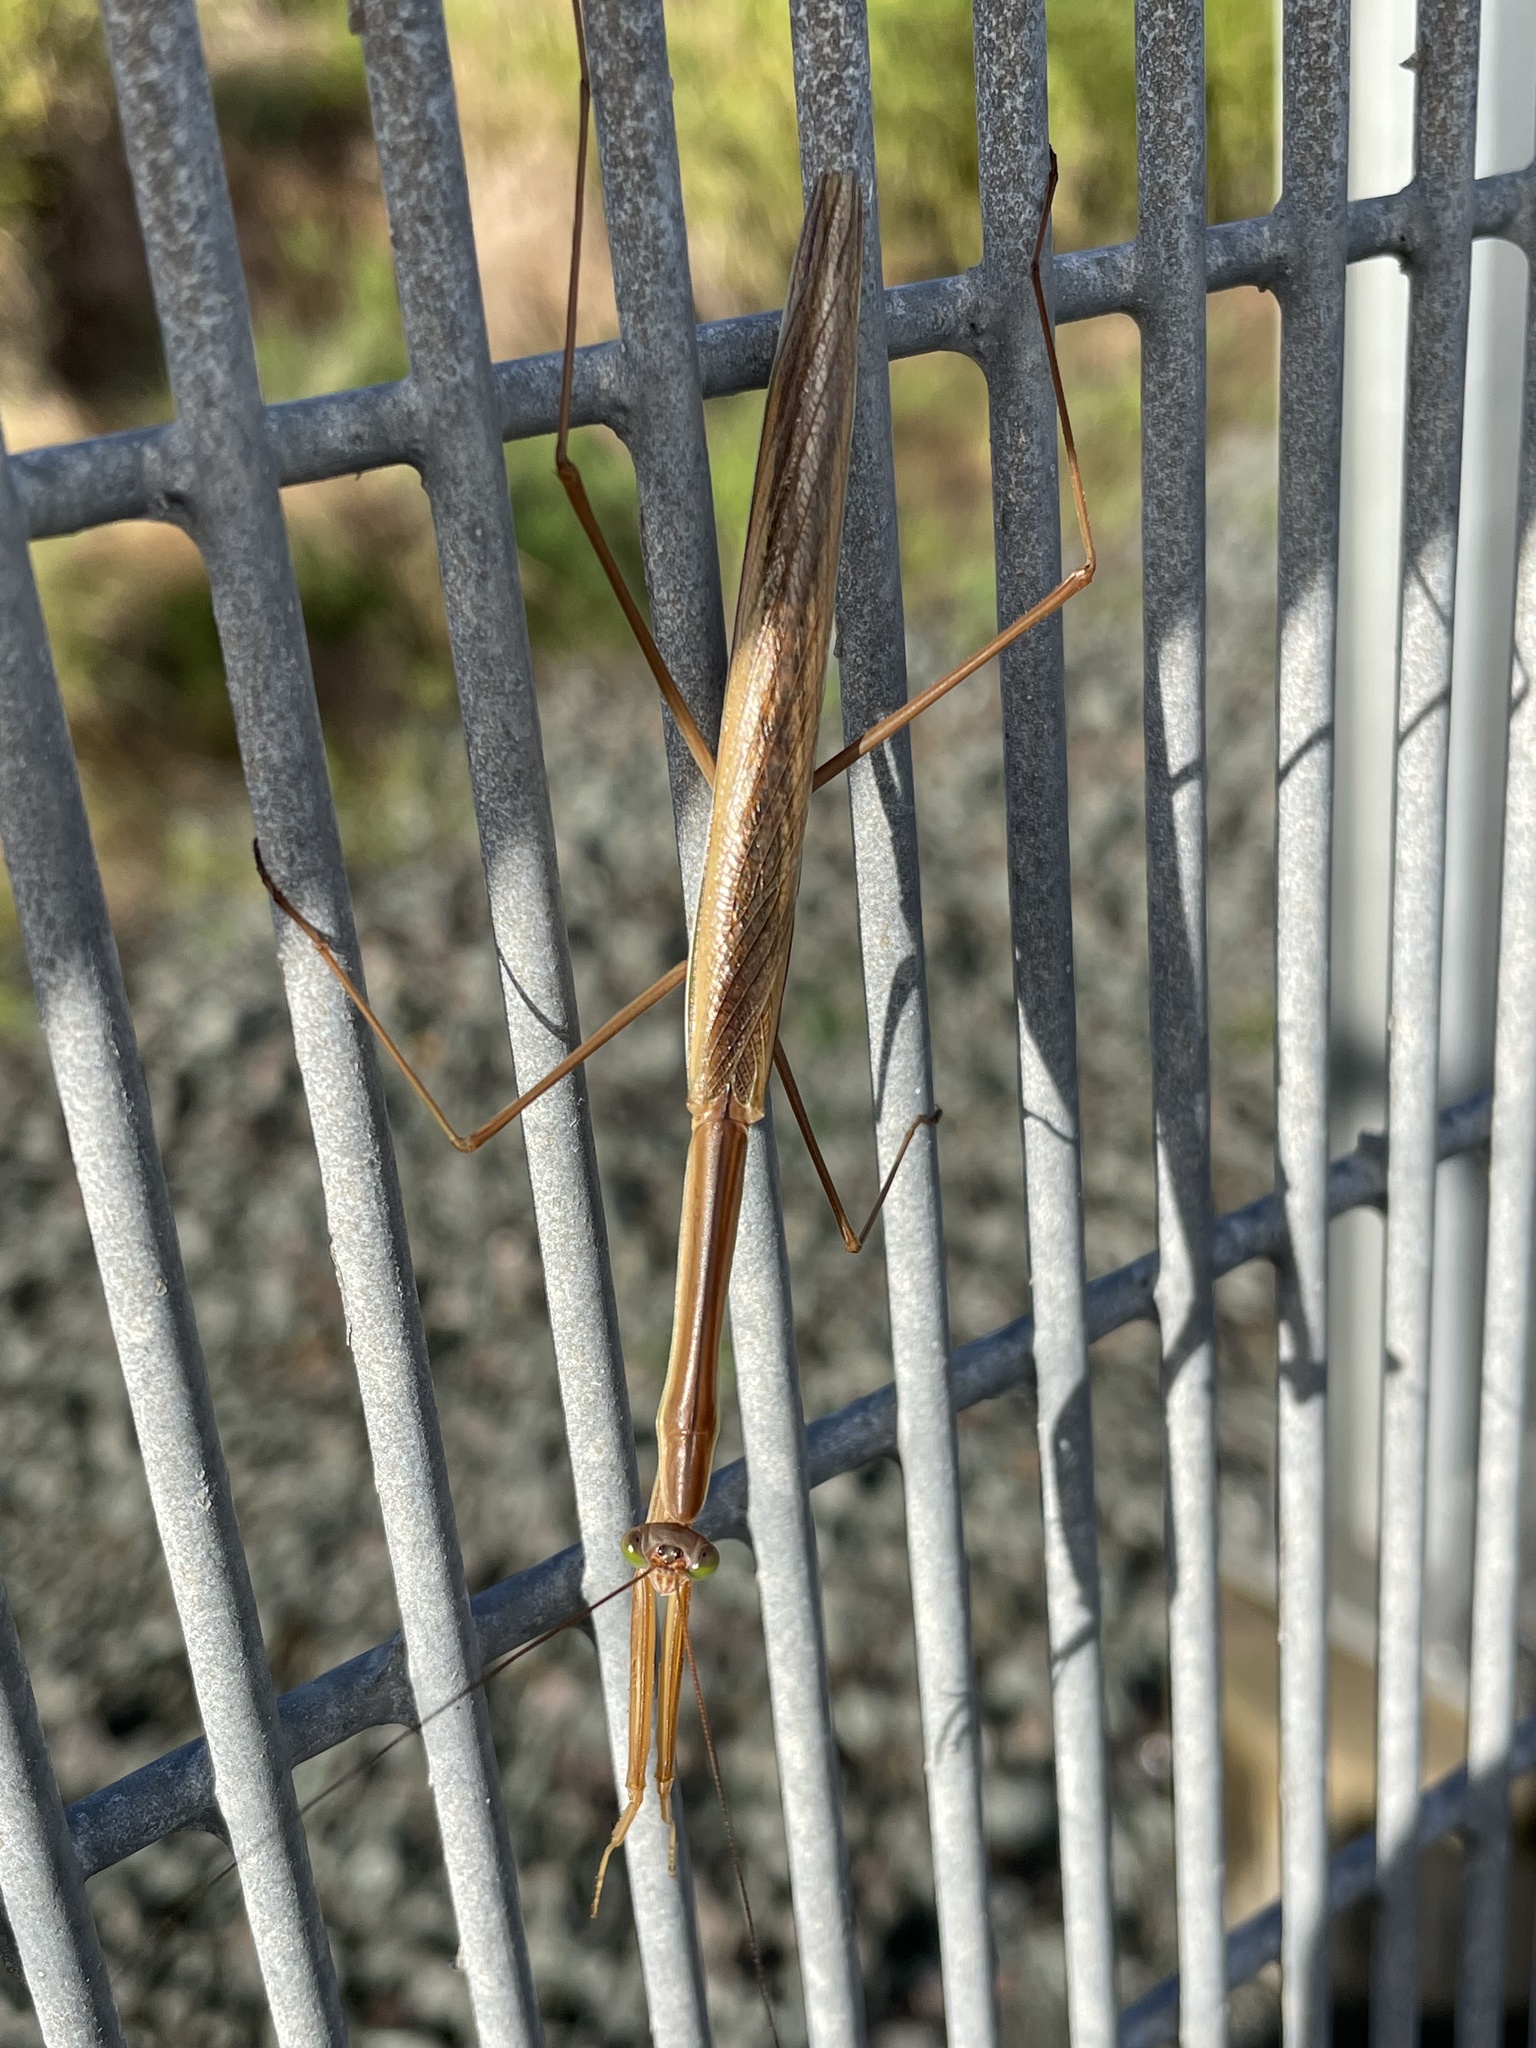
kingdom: Animalia
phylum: Arthropoda
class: Insecta
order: Mantodea
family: Mantidae
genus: Tenodera
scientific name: Tenodera australasiae
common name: Purple-winged mantis
